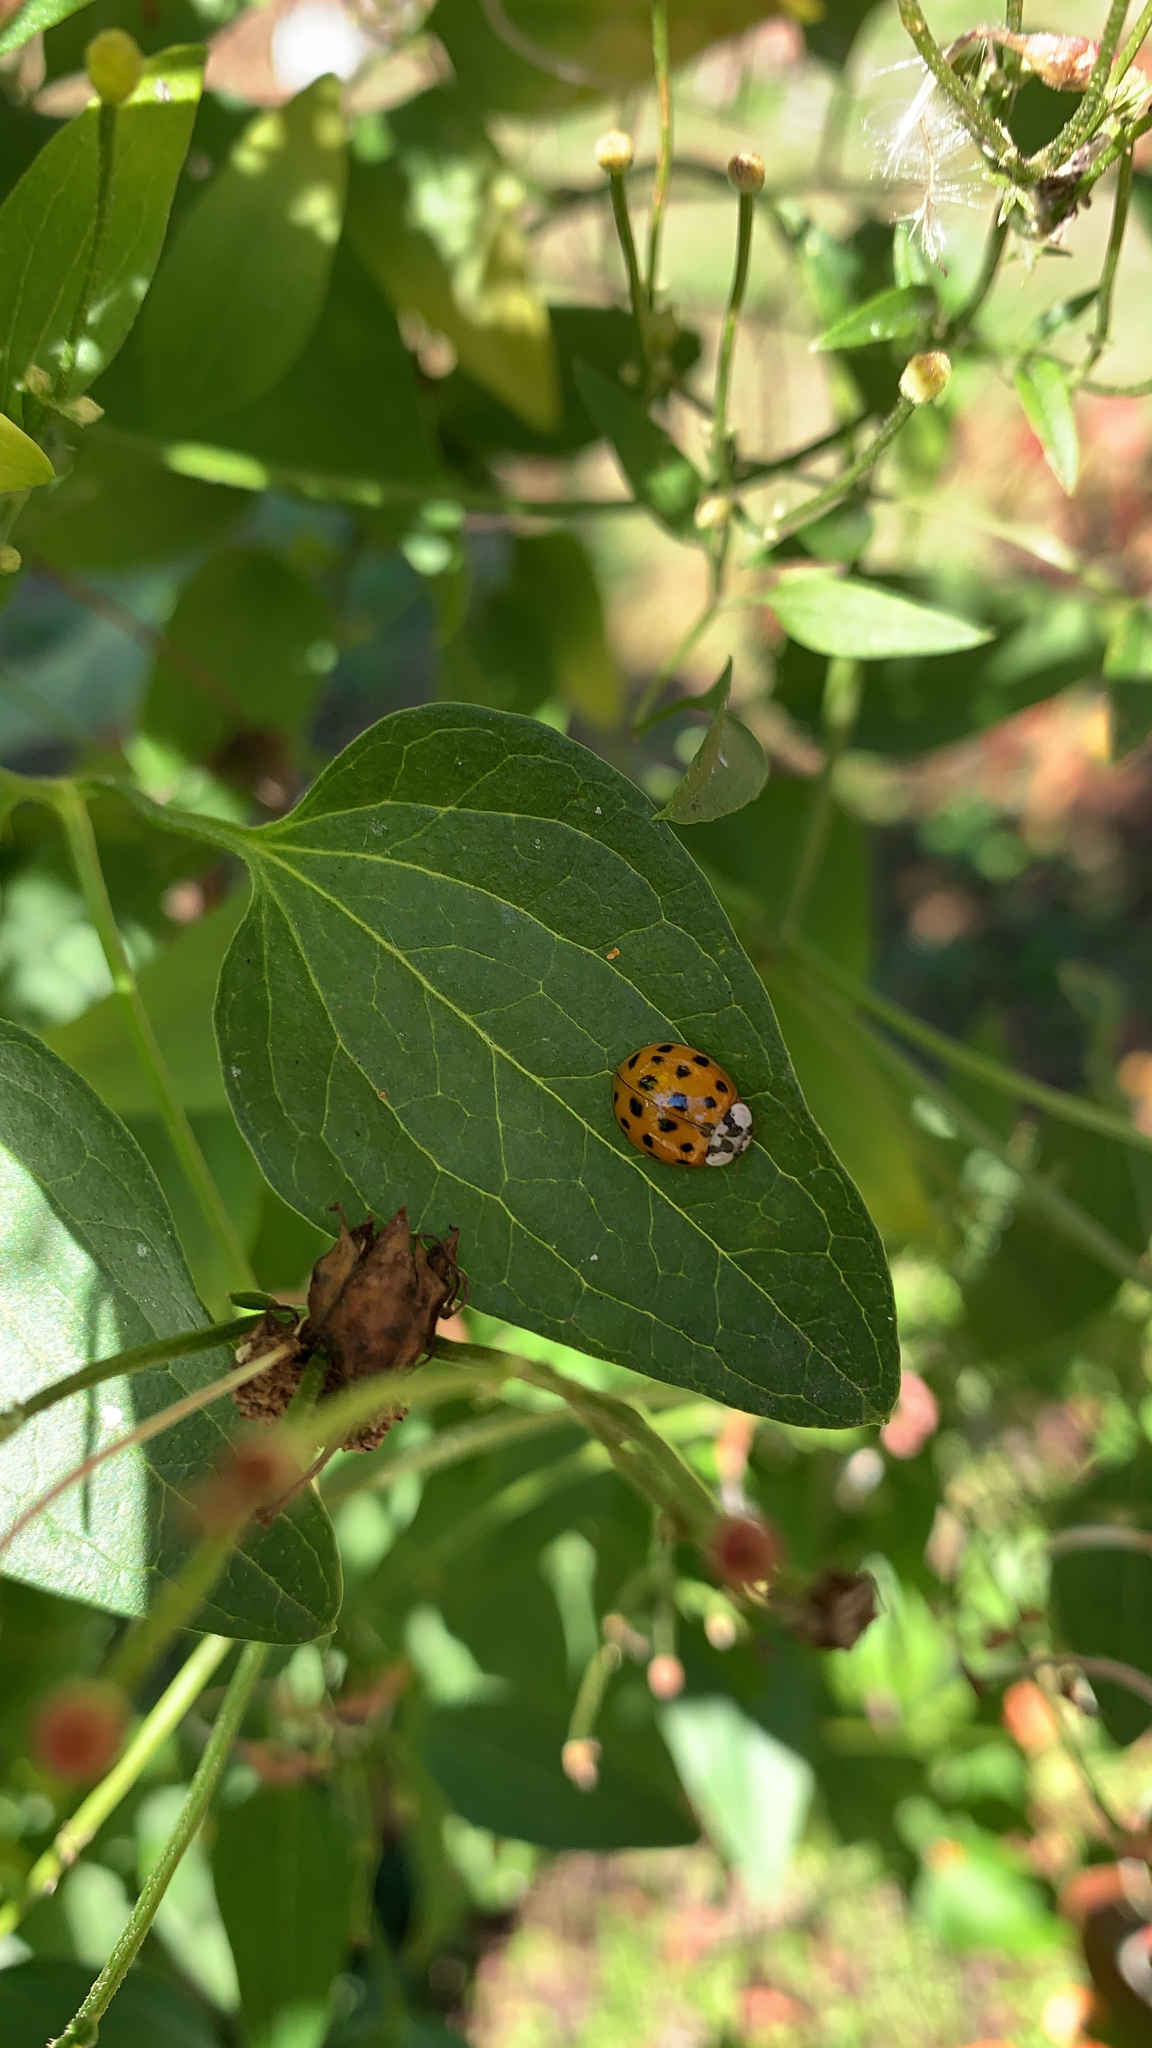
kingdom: Animalia
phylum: Arthropoda
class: Insecta
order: Coleoptera
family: Coccinellidae
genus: Harmonia
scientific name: Harmonia axyridis
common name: Harlequin ladybird
